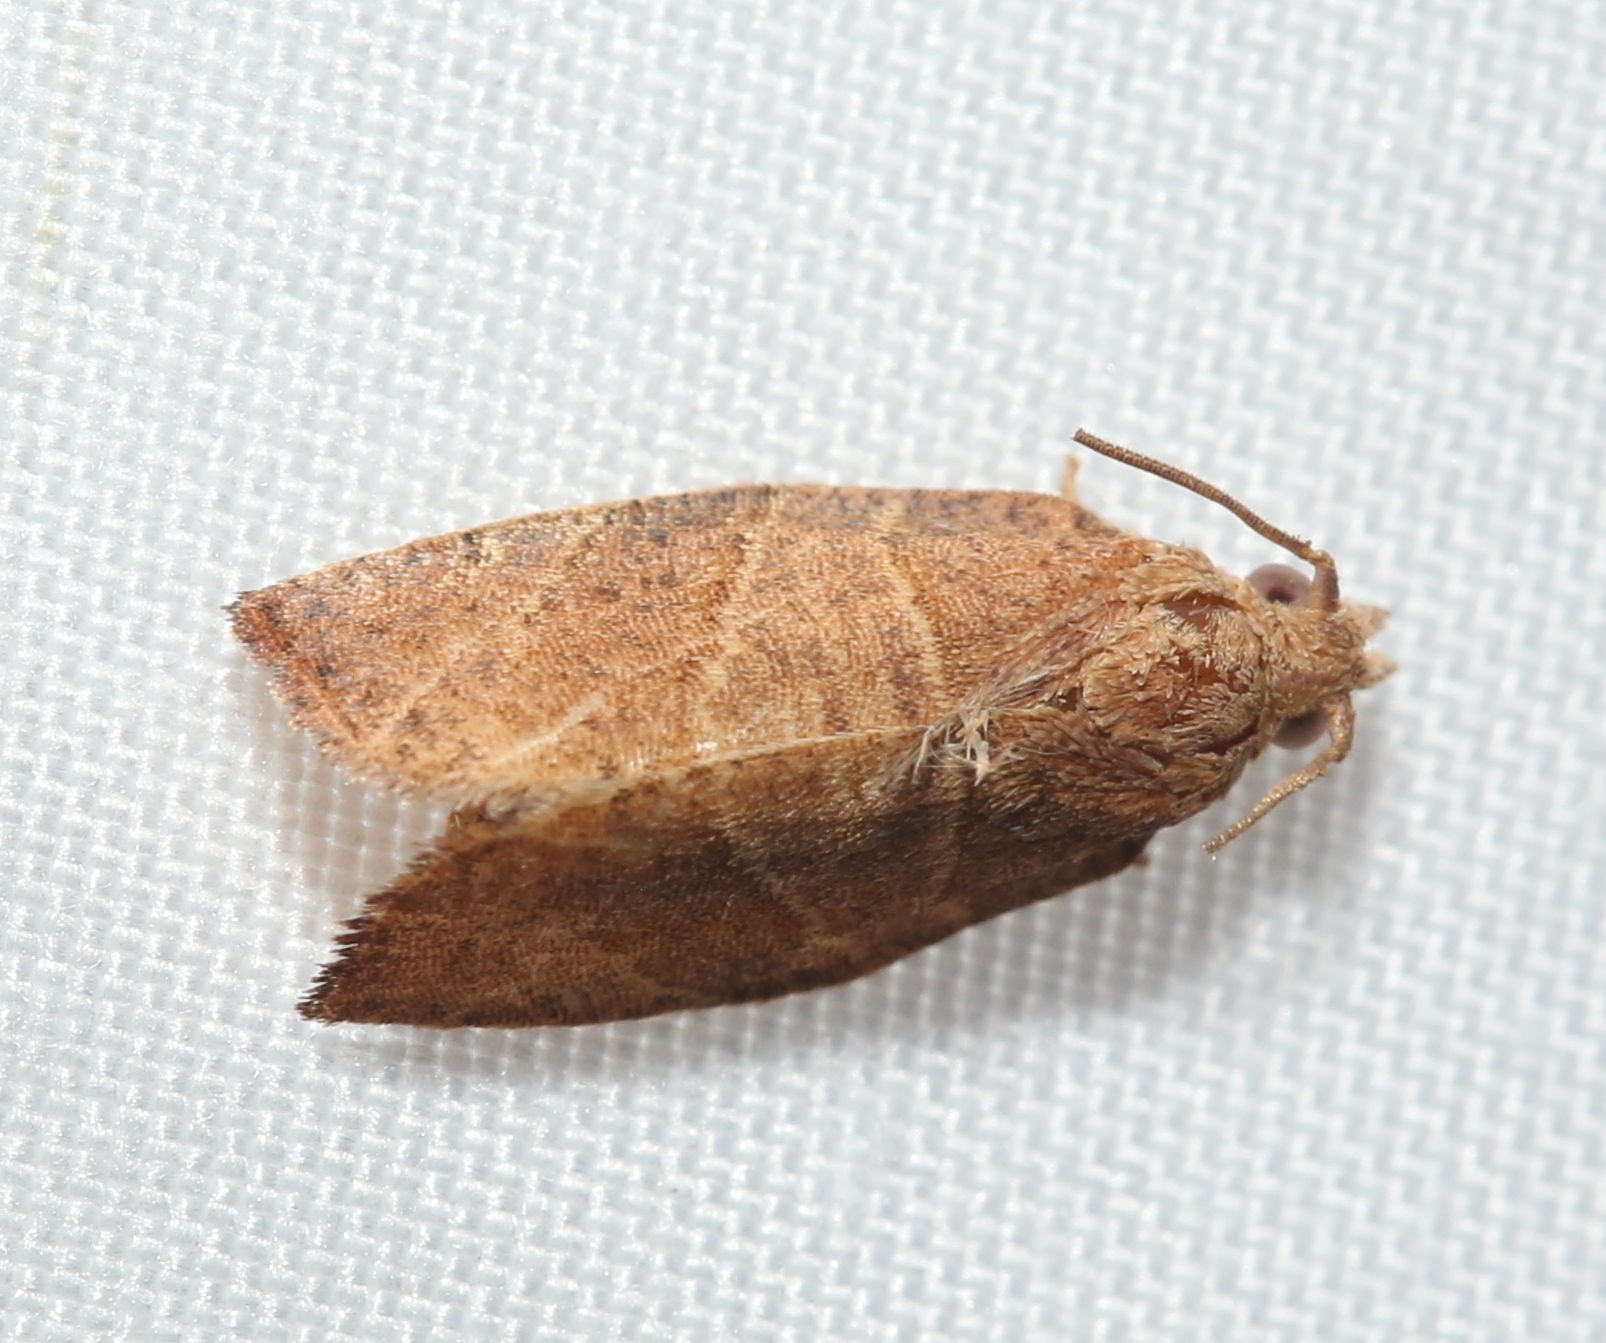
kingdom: Animalia
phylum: Arthropoda
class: Insecta
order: Lepidoptera
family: Tortricidae
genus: Pandemis
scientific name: Pandemis limitata
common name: Three-lined leafroller moth
